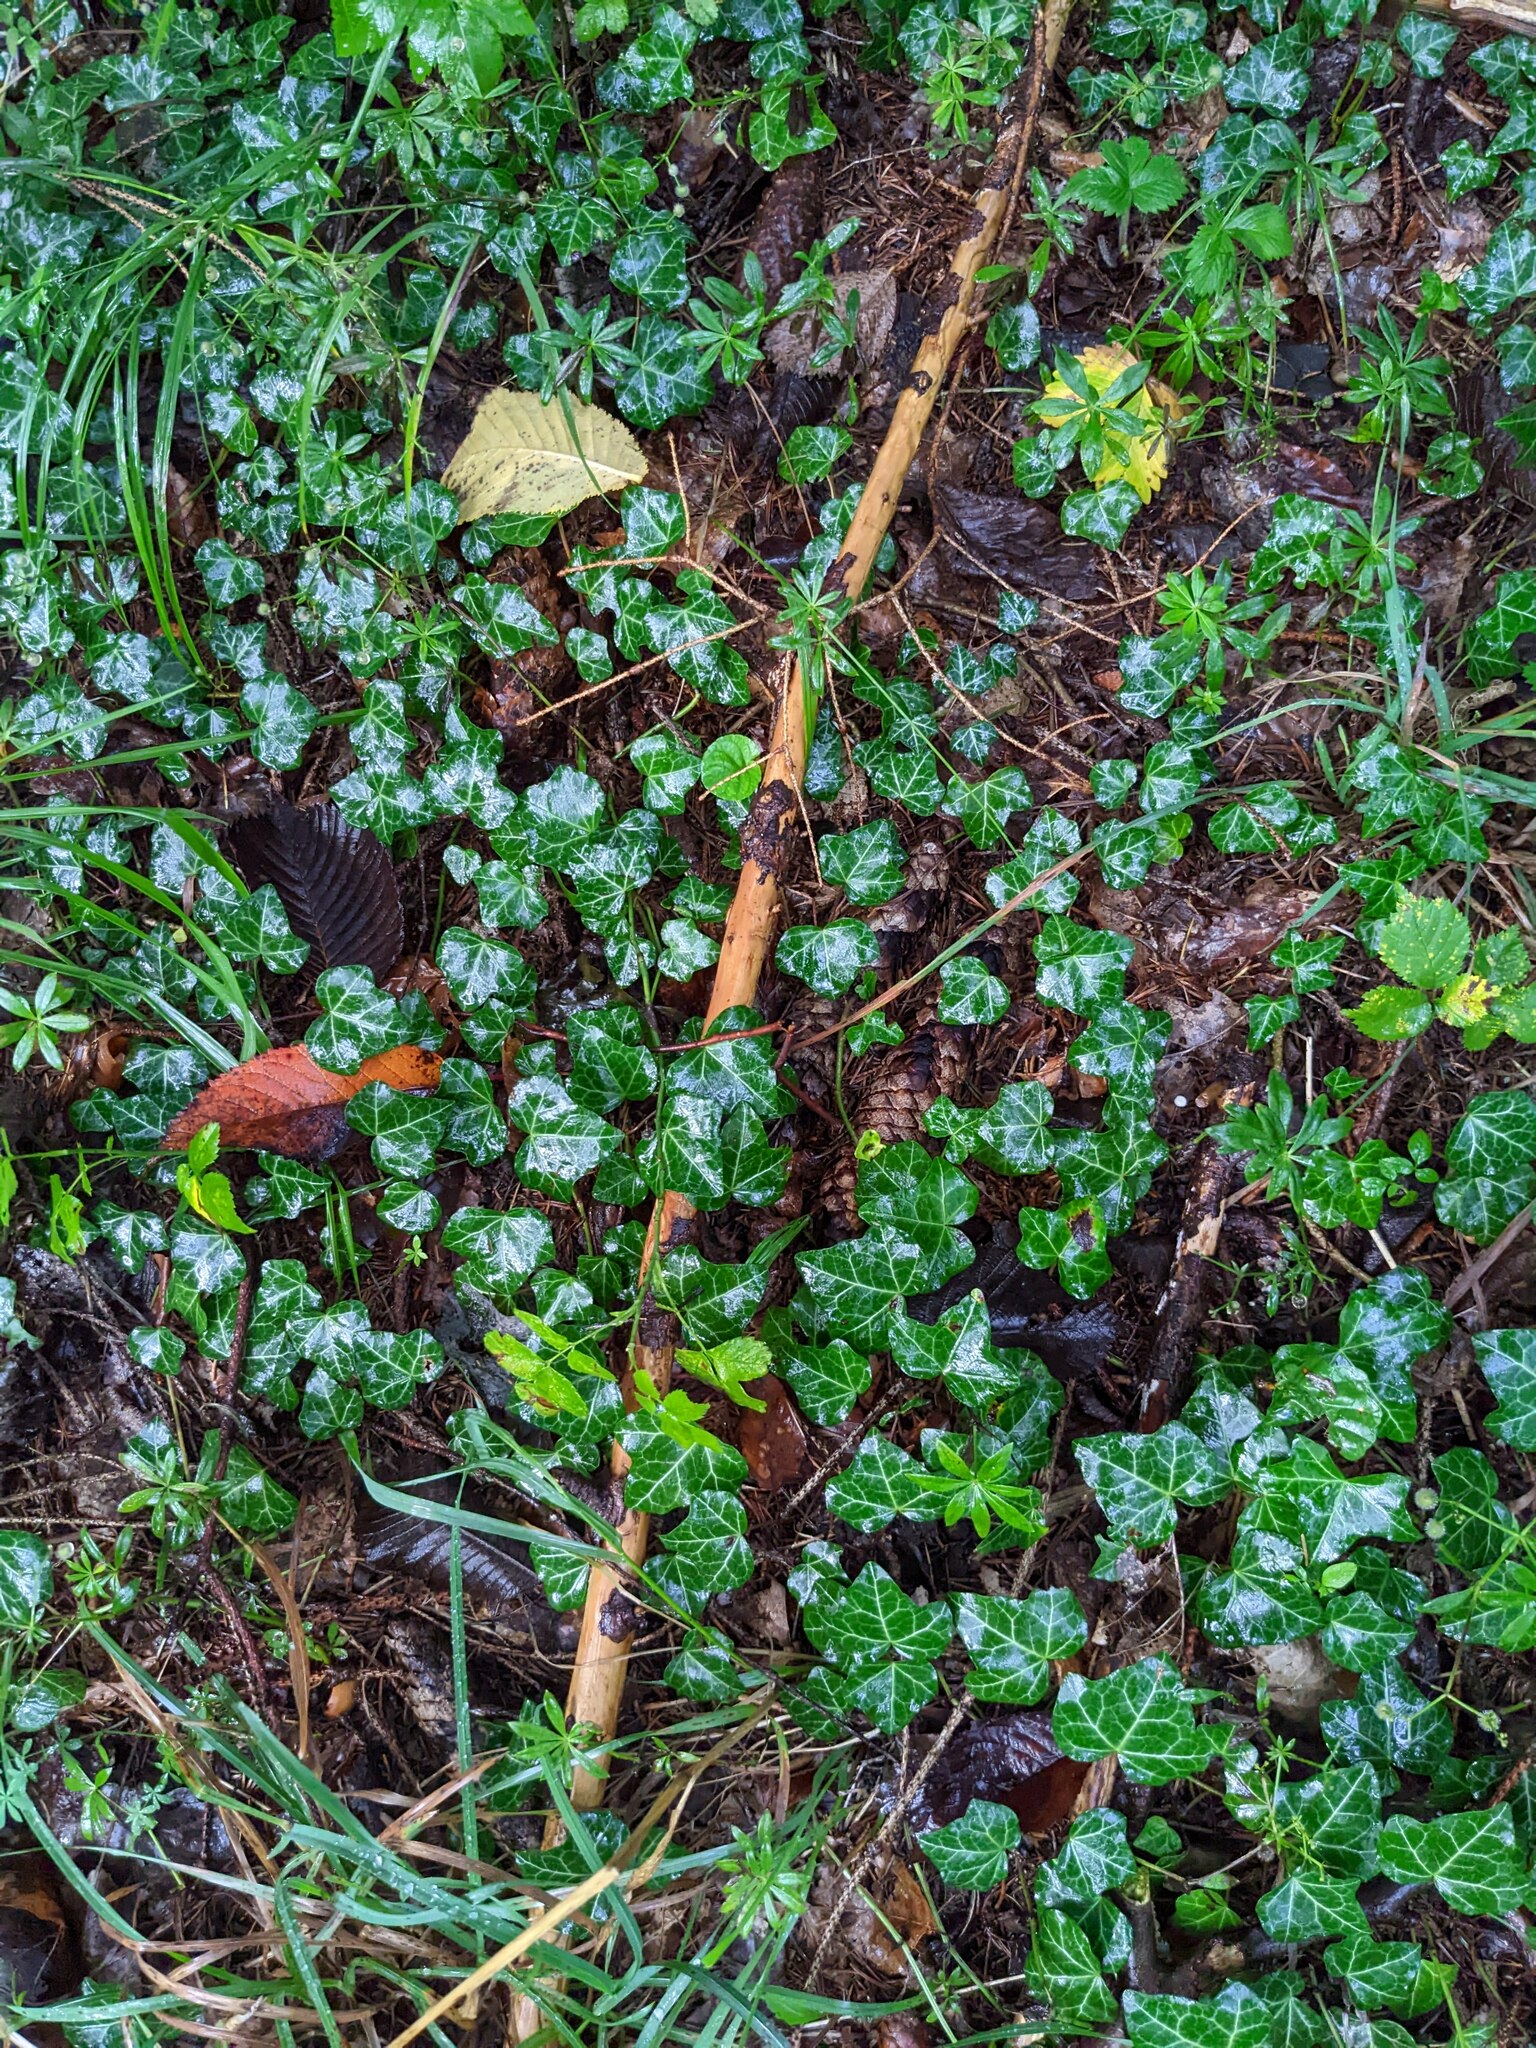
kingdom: Plantae
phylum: Tracheophyta
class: Magnoliopsida
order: Apiales
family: Araliaceae
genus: Hedera
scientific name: Hedera helix
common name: Ivy
